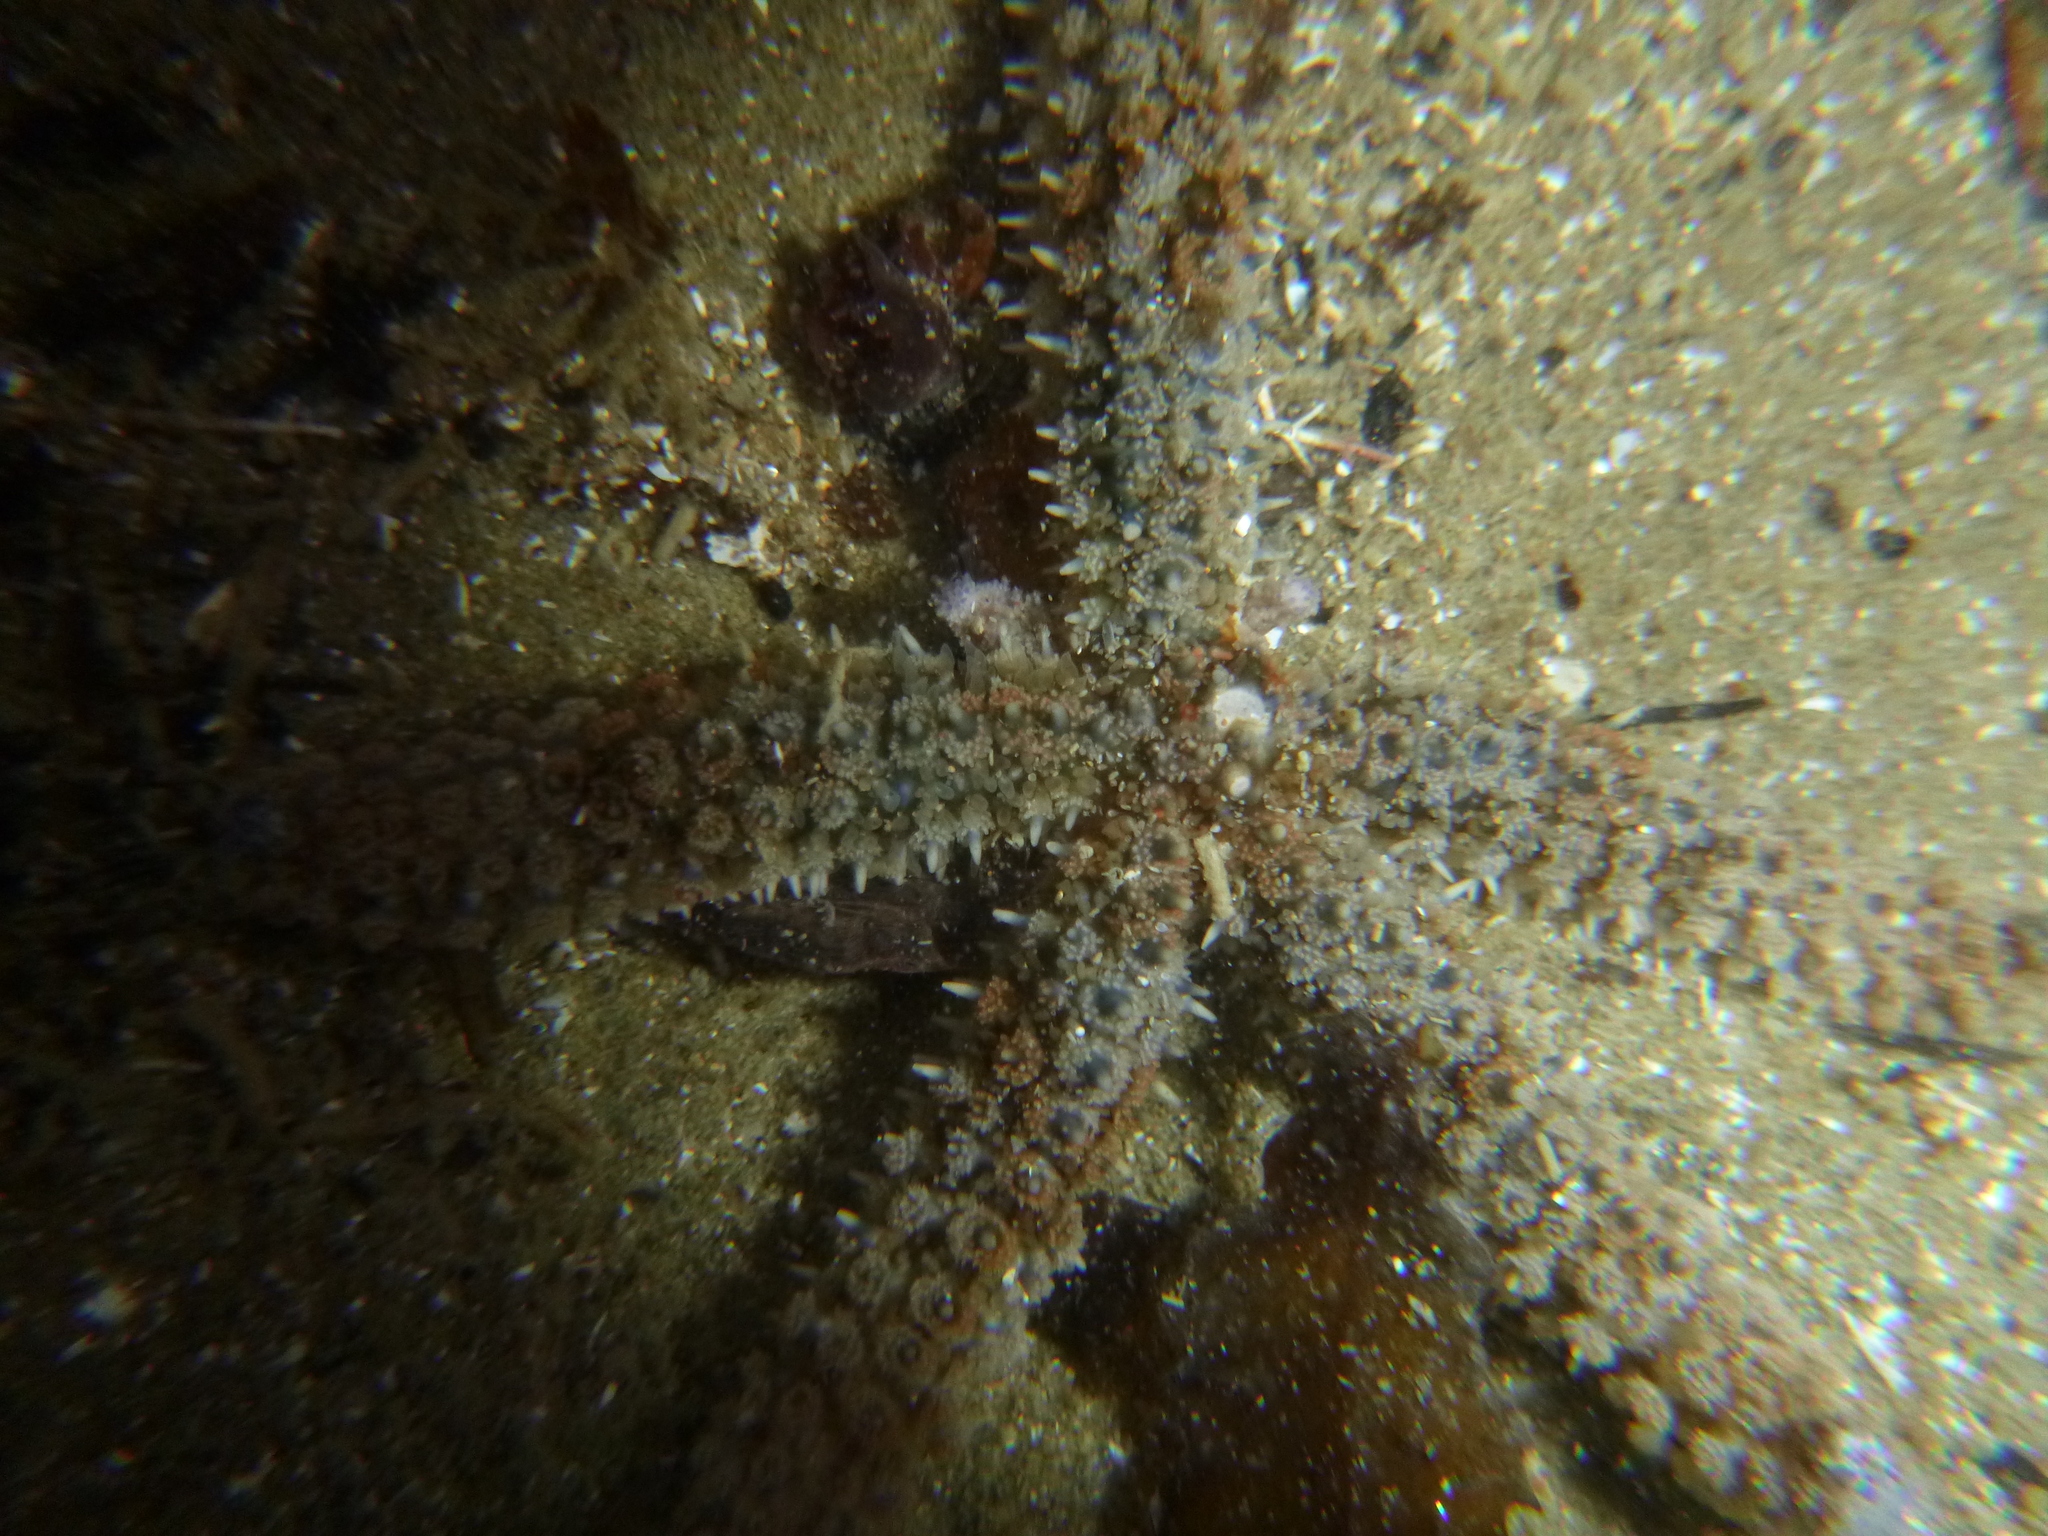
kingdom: Animalia
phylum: Echinodermata
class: Asteroidea
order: Forcipulatida
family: Asteriidae
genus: Coscinasterias
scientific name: Coscinasterias muricata
